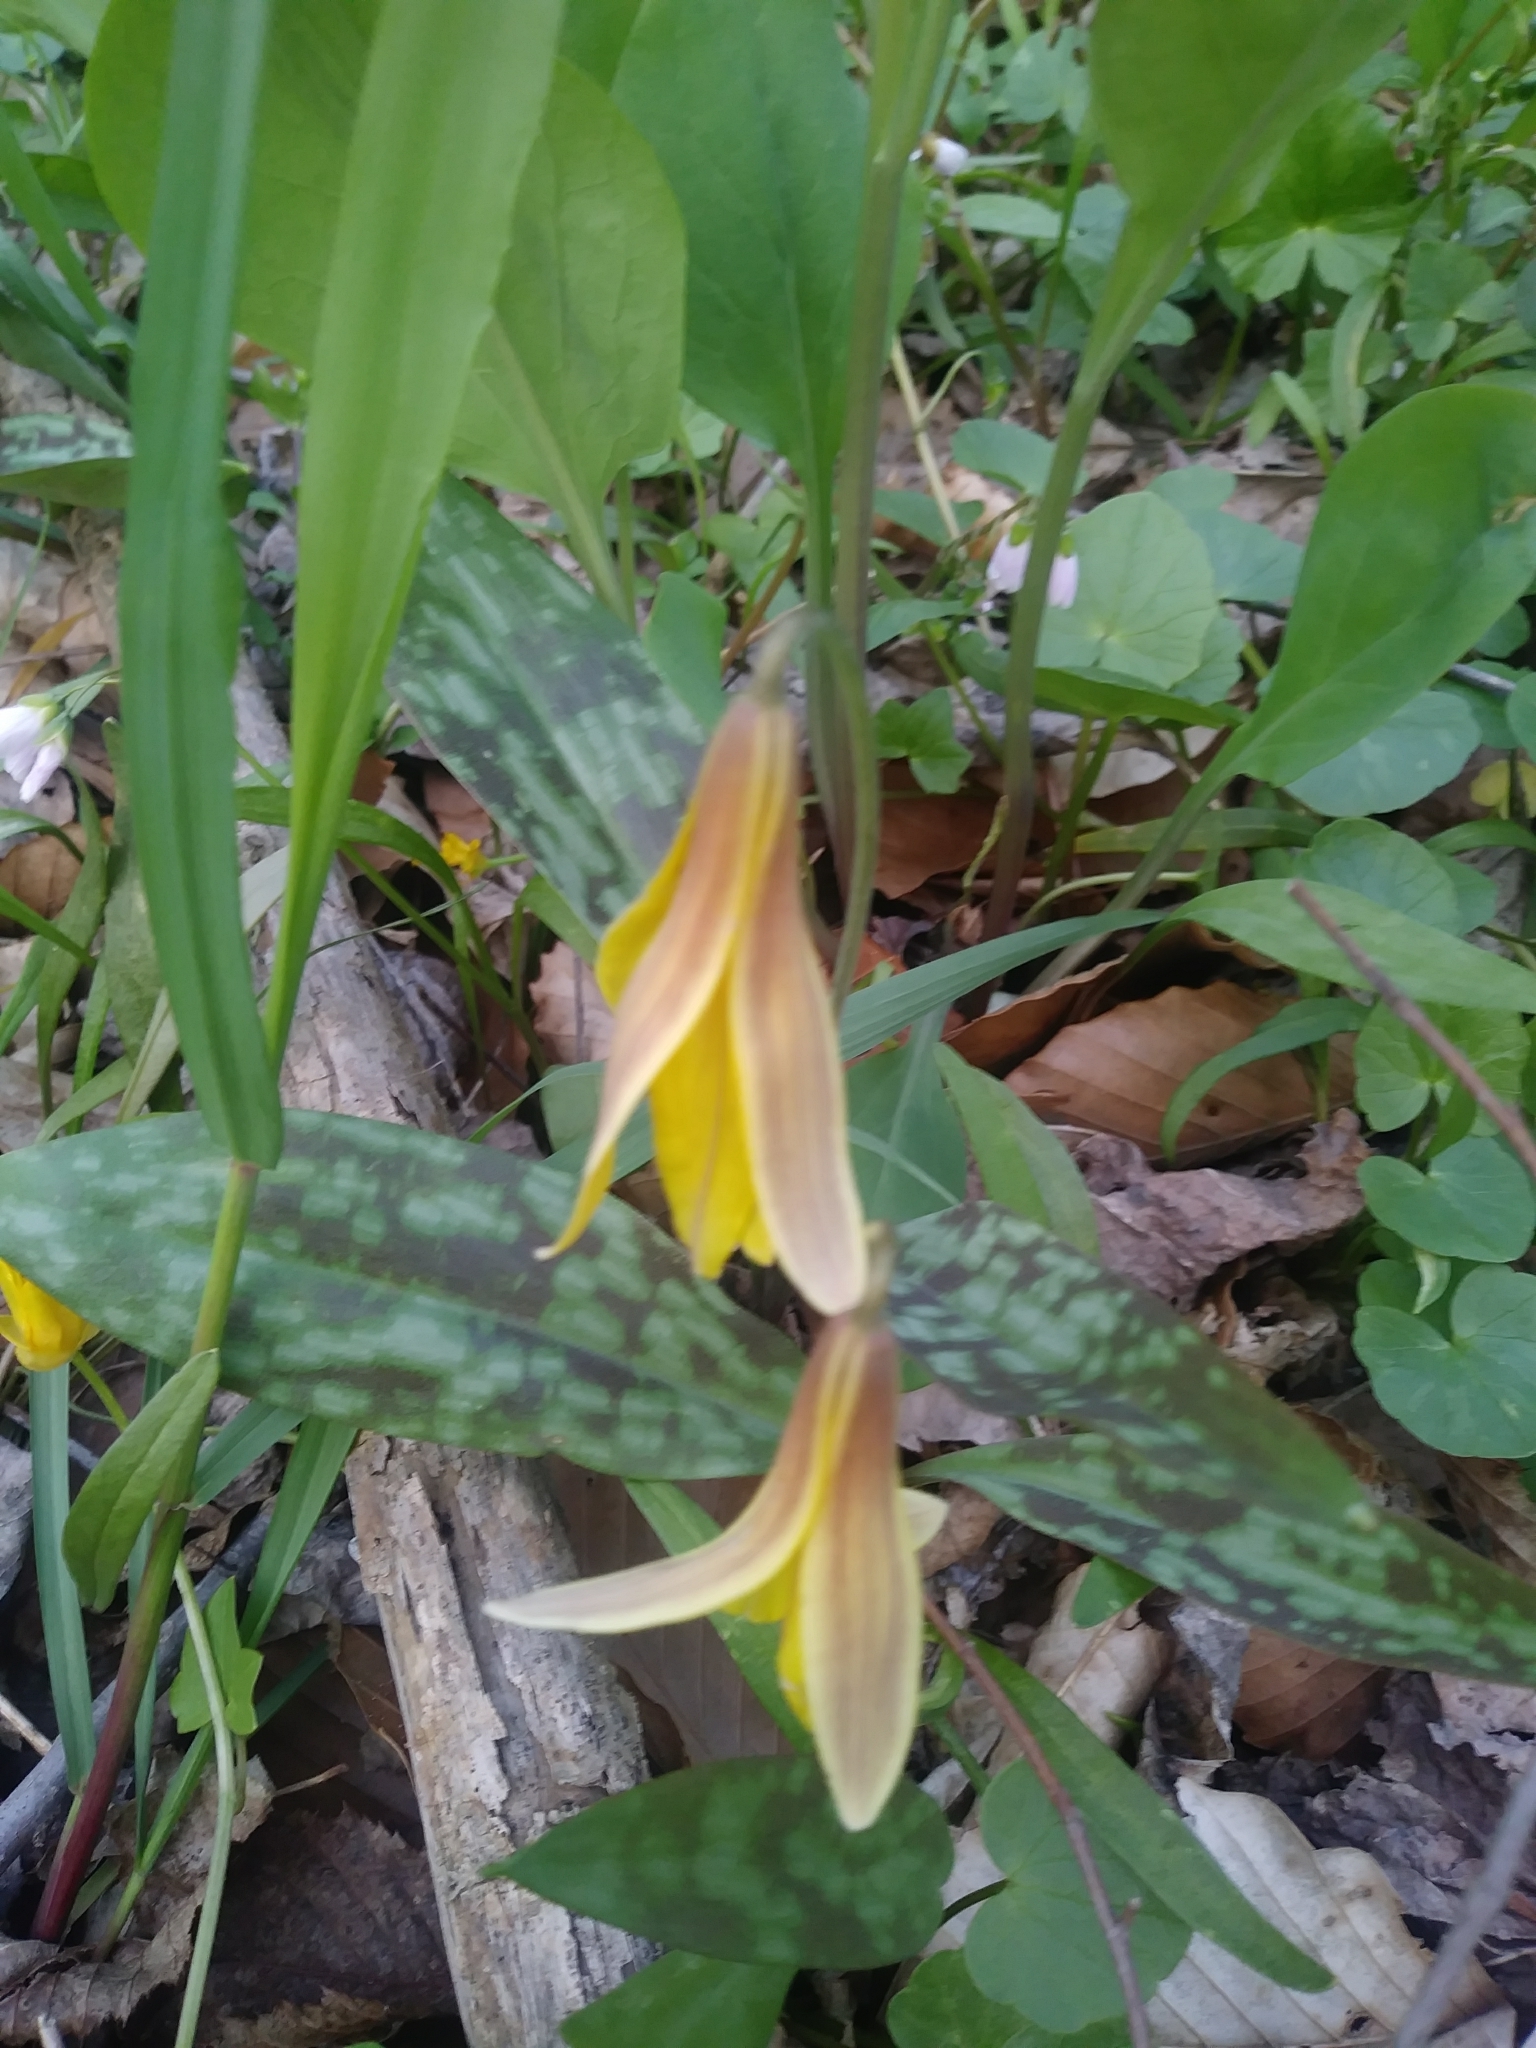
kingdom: Plantae
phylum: Tracheophyta
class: Liliopsida
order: Liliales
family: Liliaceae
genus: Erythronium
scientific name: Erythronium americanum
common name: Yellow adder's-tongue
